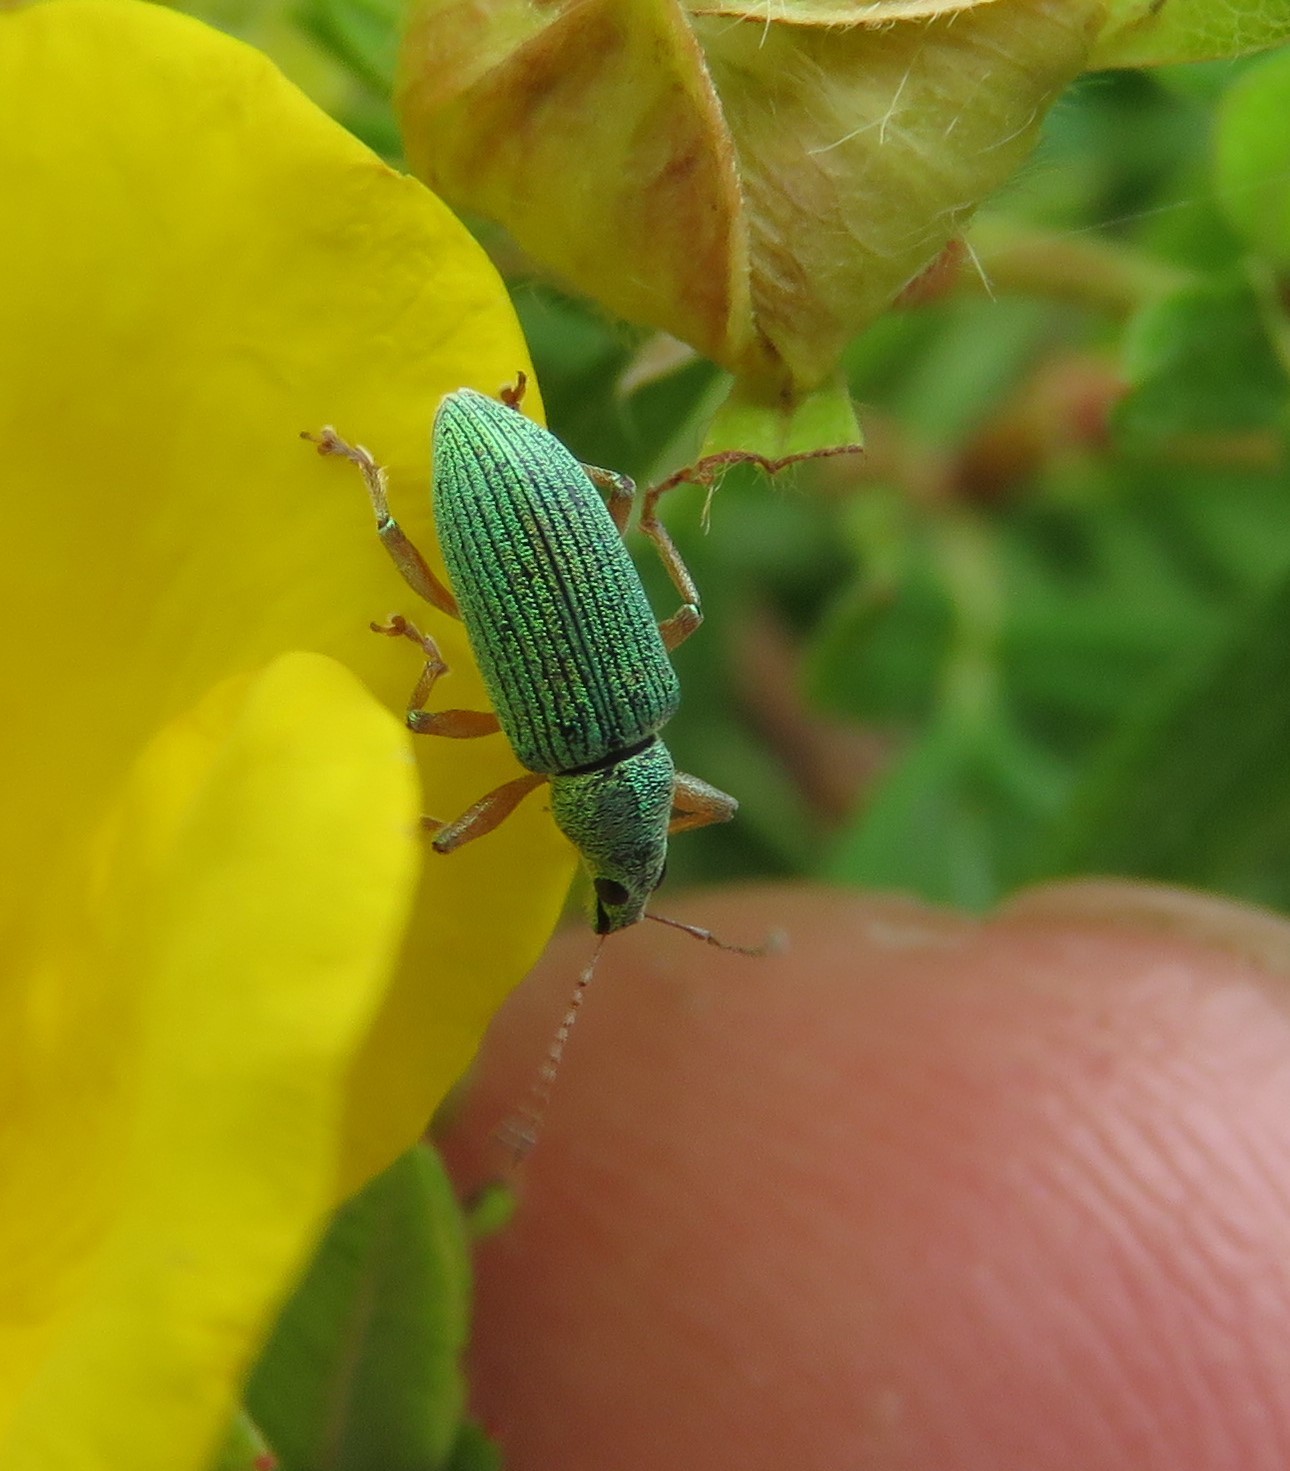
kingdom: Animalia
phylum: Arthropoda
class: Insecta
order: Coleoptera
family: Curculionidae
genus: Polydrusus
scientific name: Polydrusus formosus
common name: Weevil
